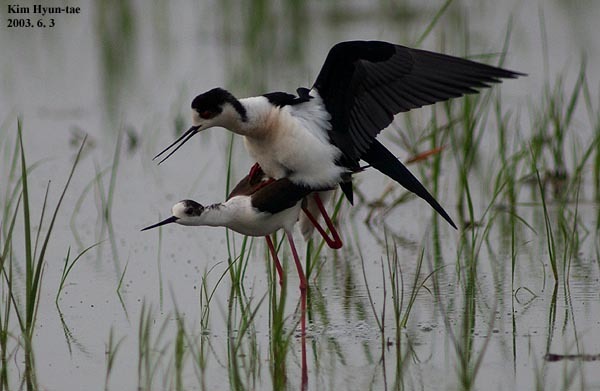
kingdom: Animalia
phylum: Chordata
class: Aves
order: Charadriiformes
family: Recurvirostridae
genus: Himantopus
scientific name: Himantopus himantopus
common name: Black-winged stilt
